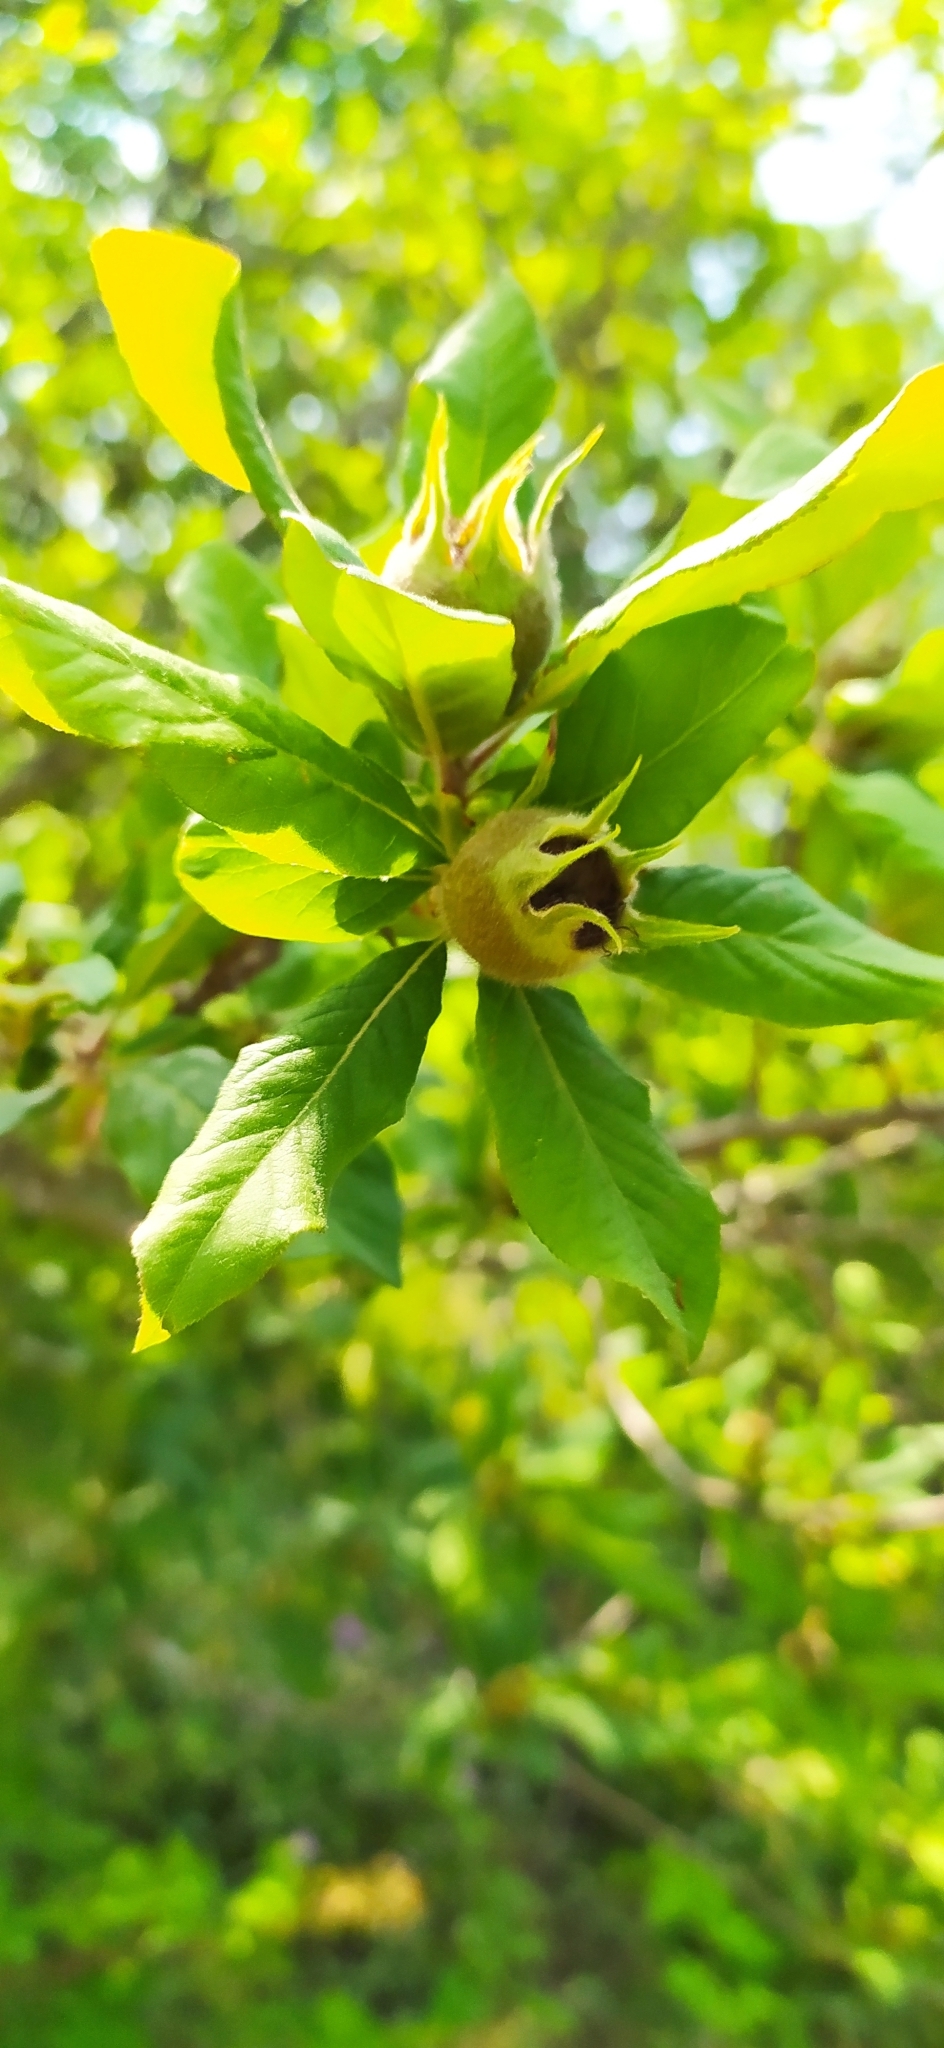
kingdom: Plantae
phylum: Tracheophyta
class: Magnoliopsida
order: Rosales
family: Rosaceae
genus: Mespilus
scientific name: Mespilus germanica
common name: Medlar
